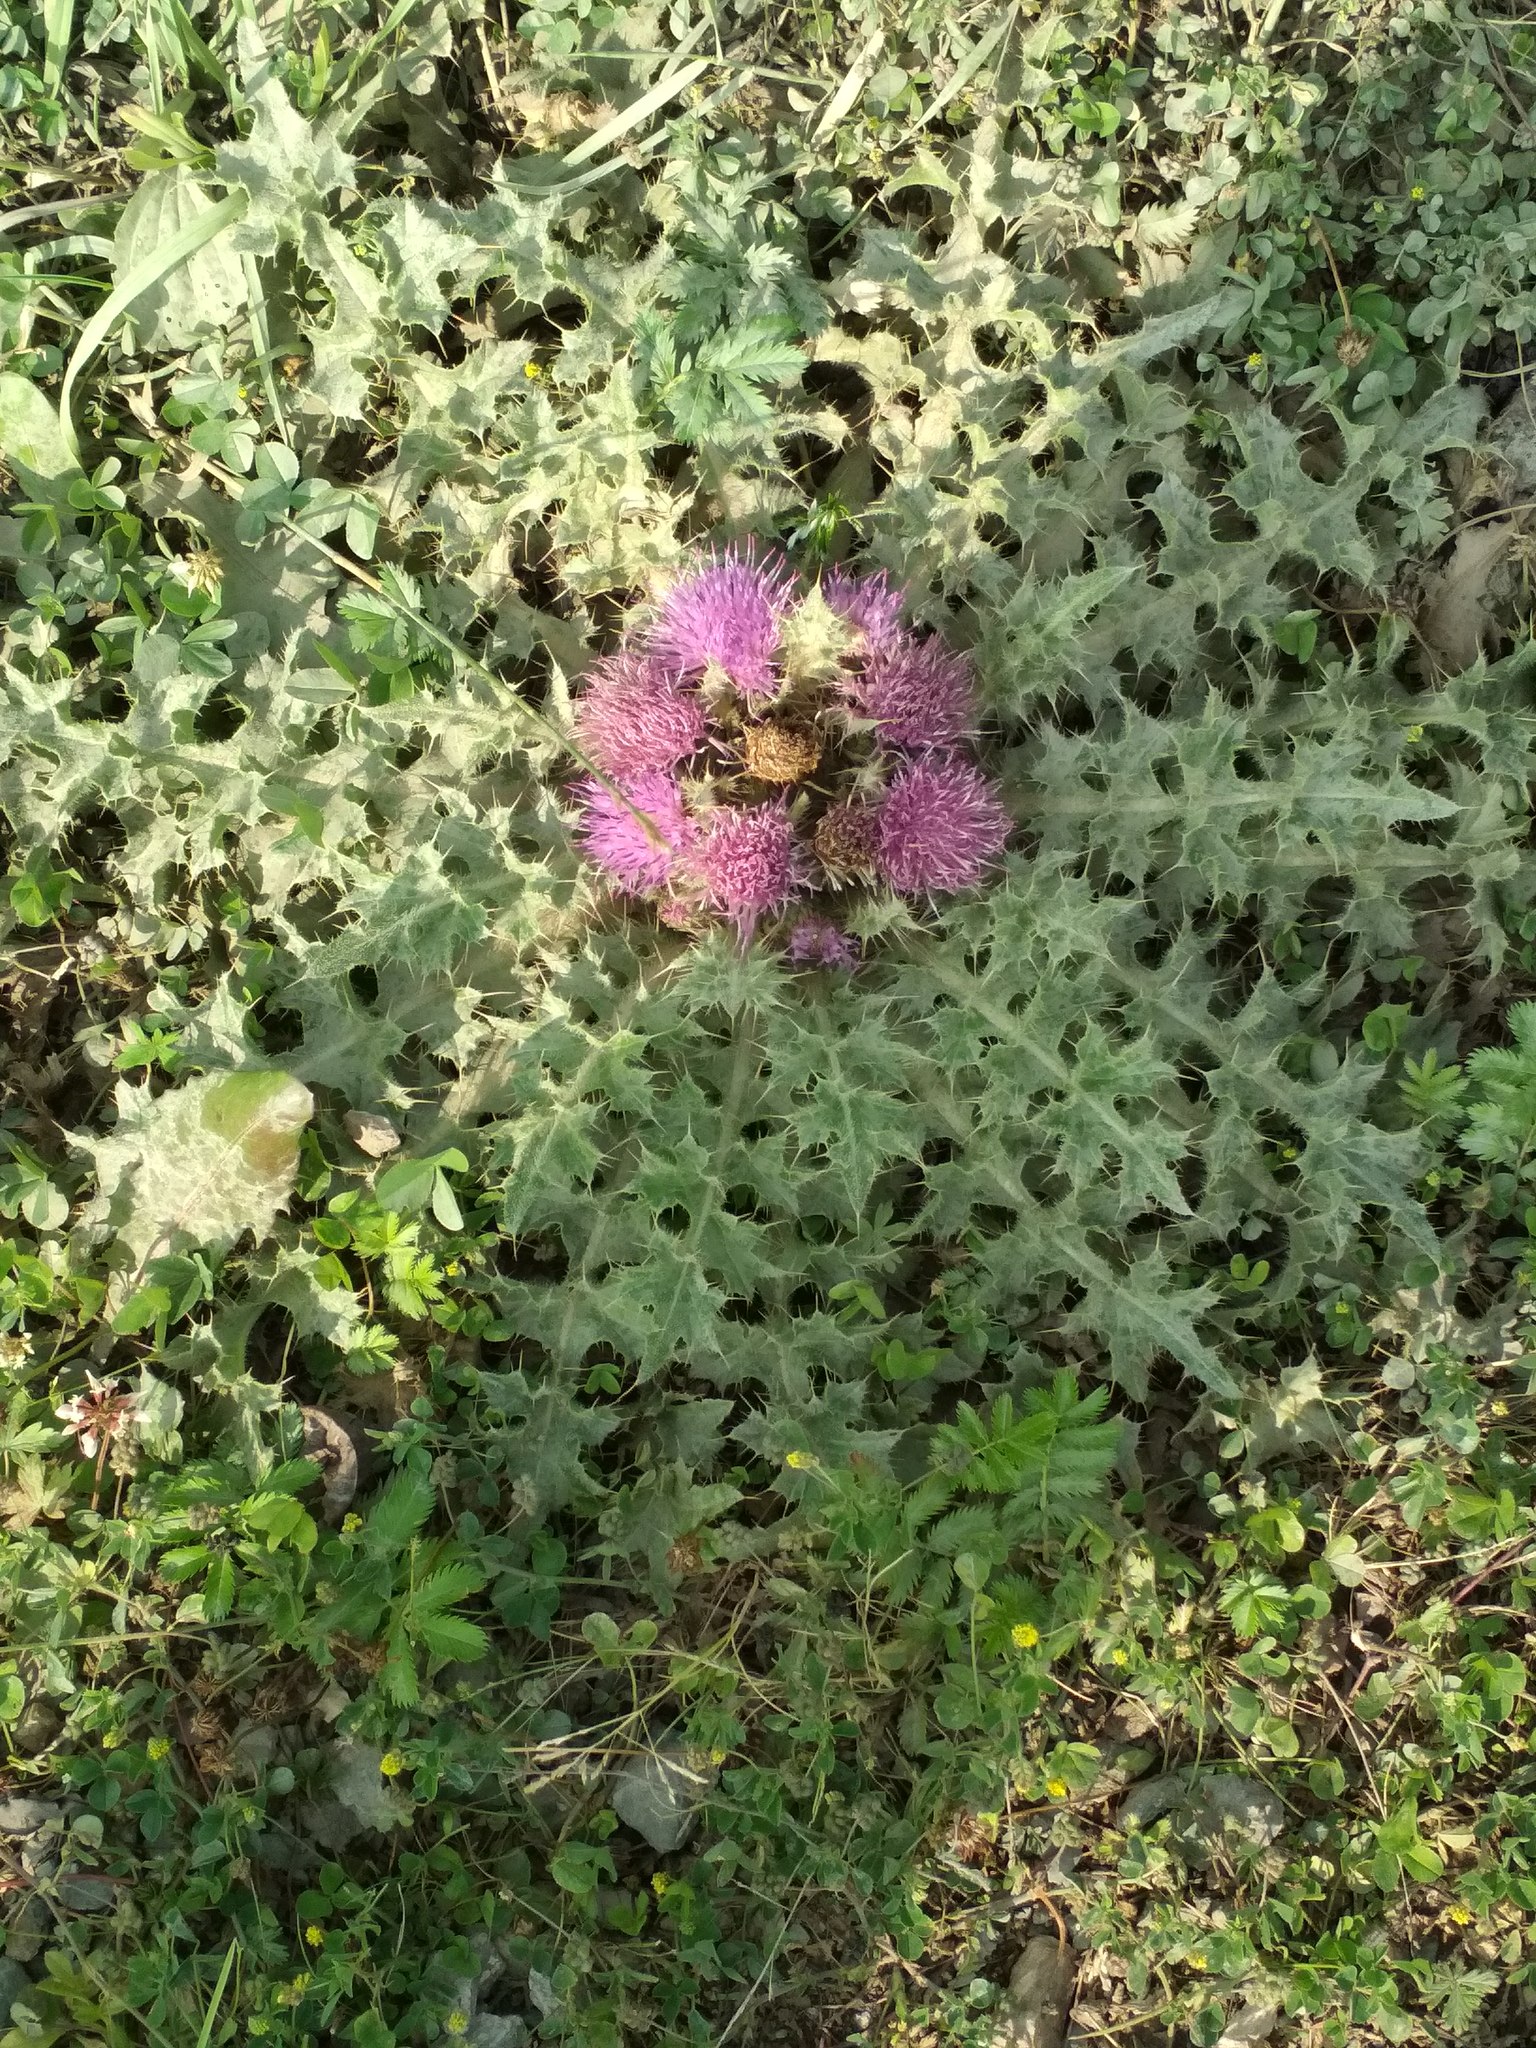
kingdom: Plantae
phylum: Tracheophyta
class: Magnoliopsida
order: Asterales
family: Asteraceae
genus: Cirsium
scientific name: Cirsium esculentum
